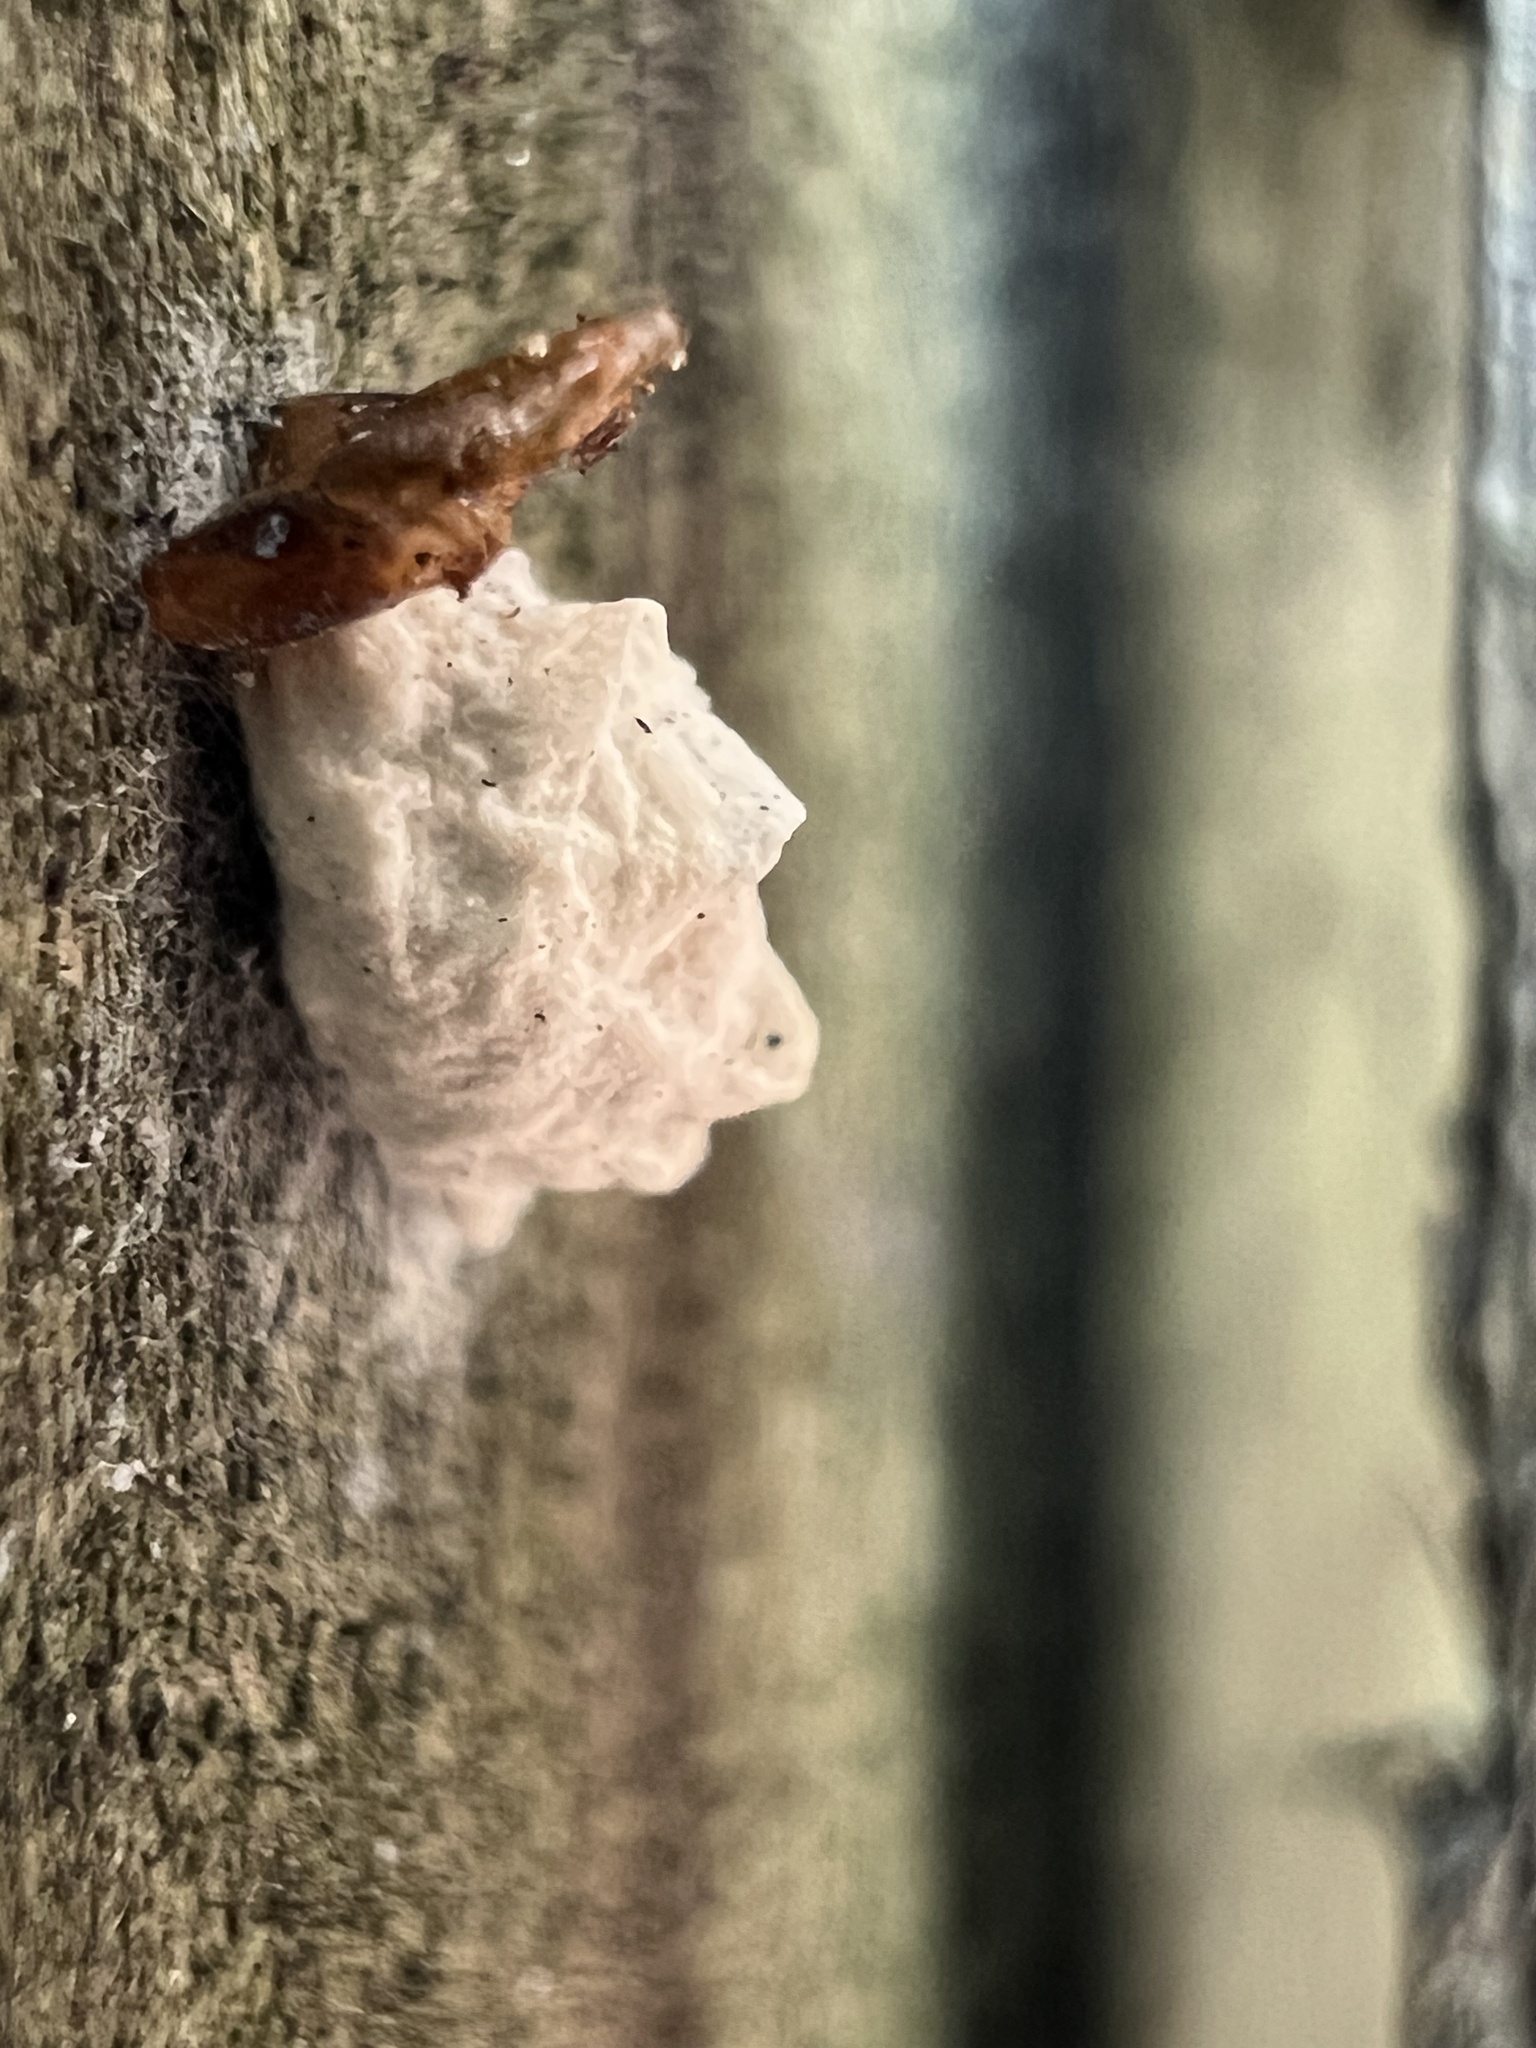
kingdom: Animalia
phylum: Arthropoda
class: Insecta
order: Lepidoptera
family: Epipyropidae
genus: Fulgoraecia
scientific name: Fulgoraecia exigua
